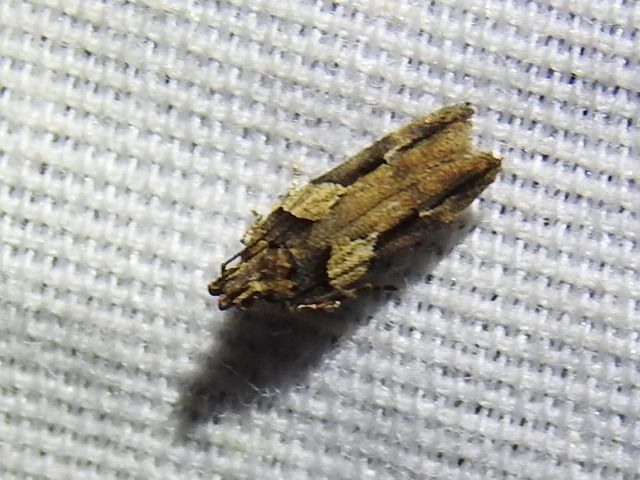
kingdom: Animalia
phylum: Arthropoda
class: Insecta
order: Lepidoptera
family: Gelechiidae
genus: Friseria
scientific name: Friseria acaciella
